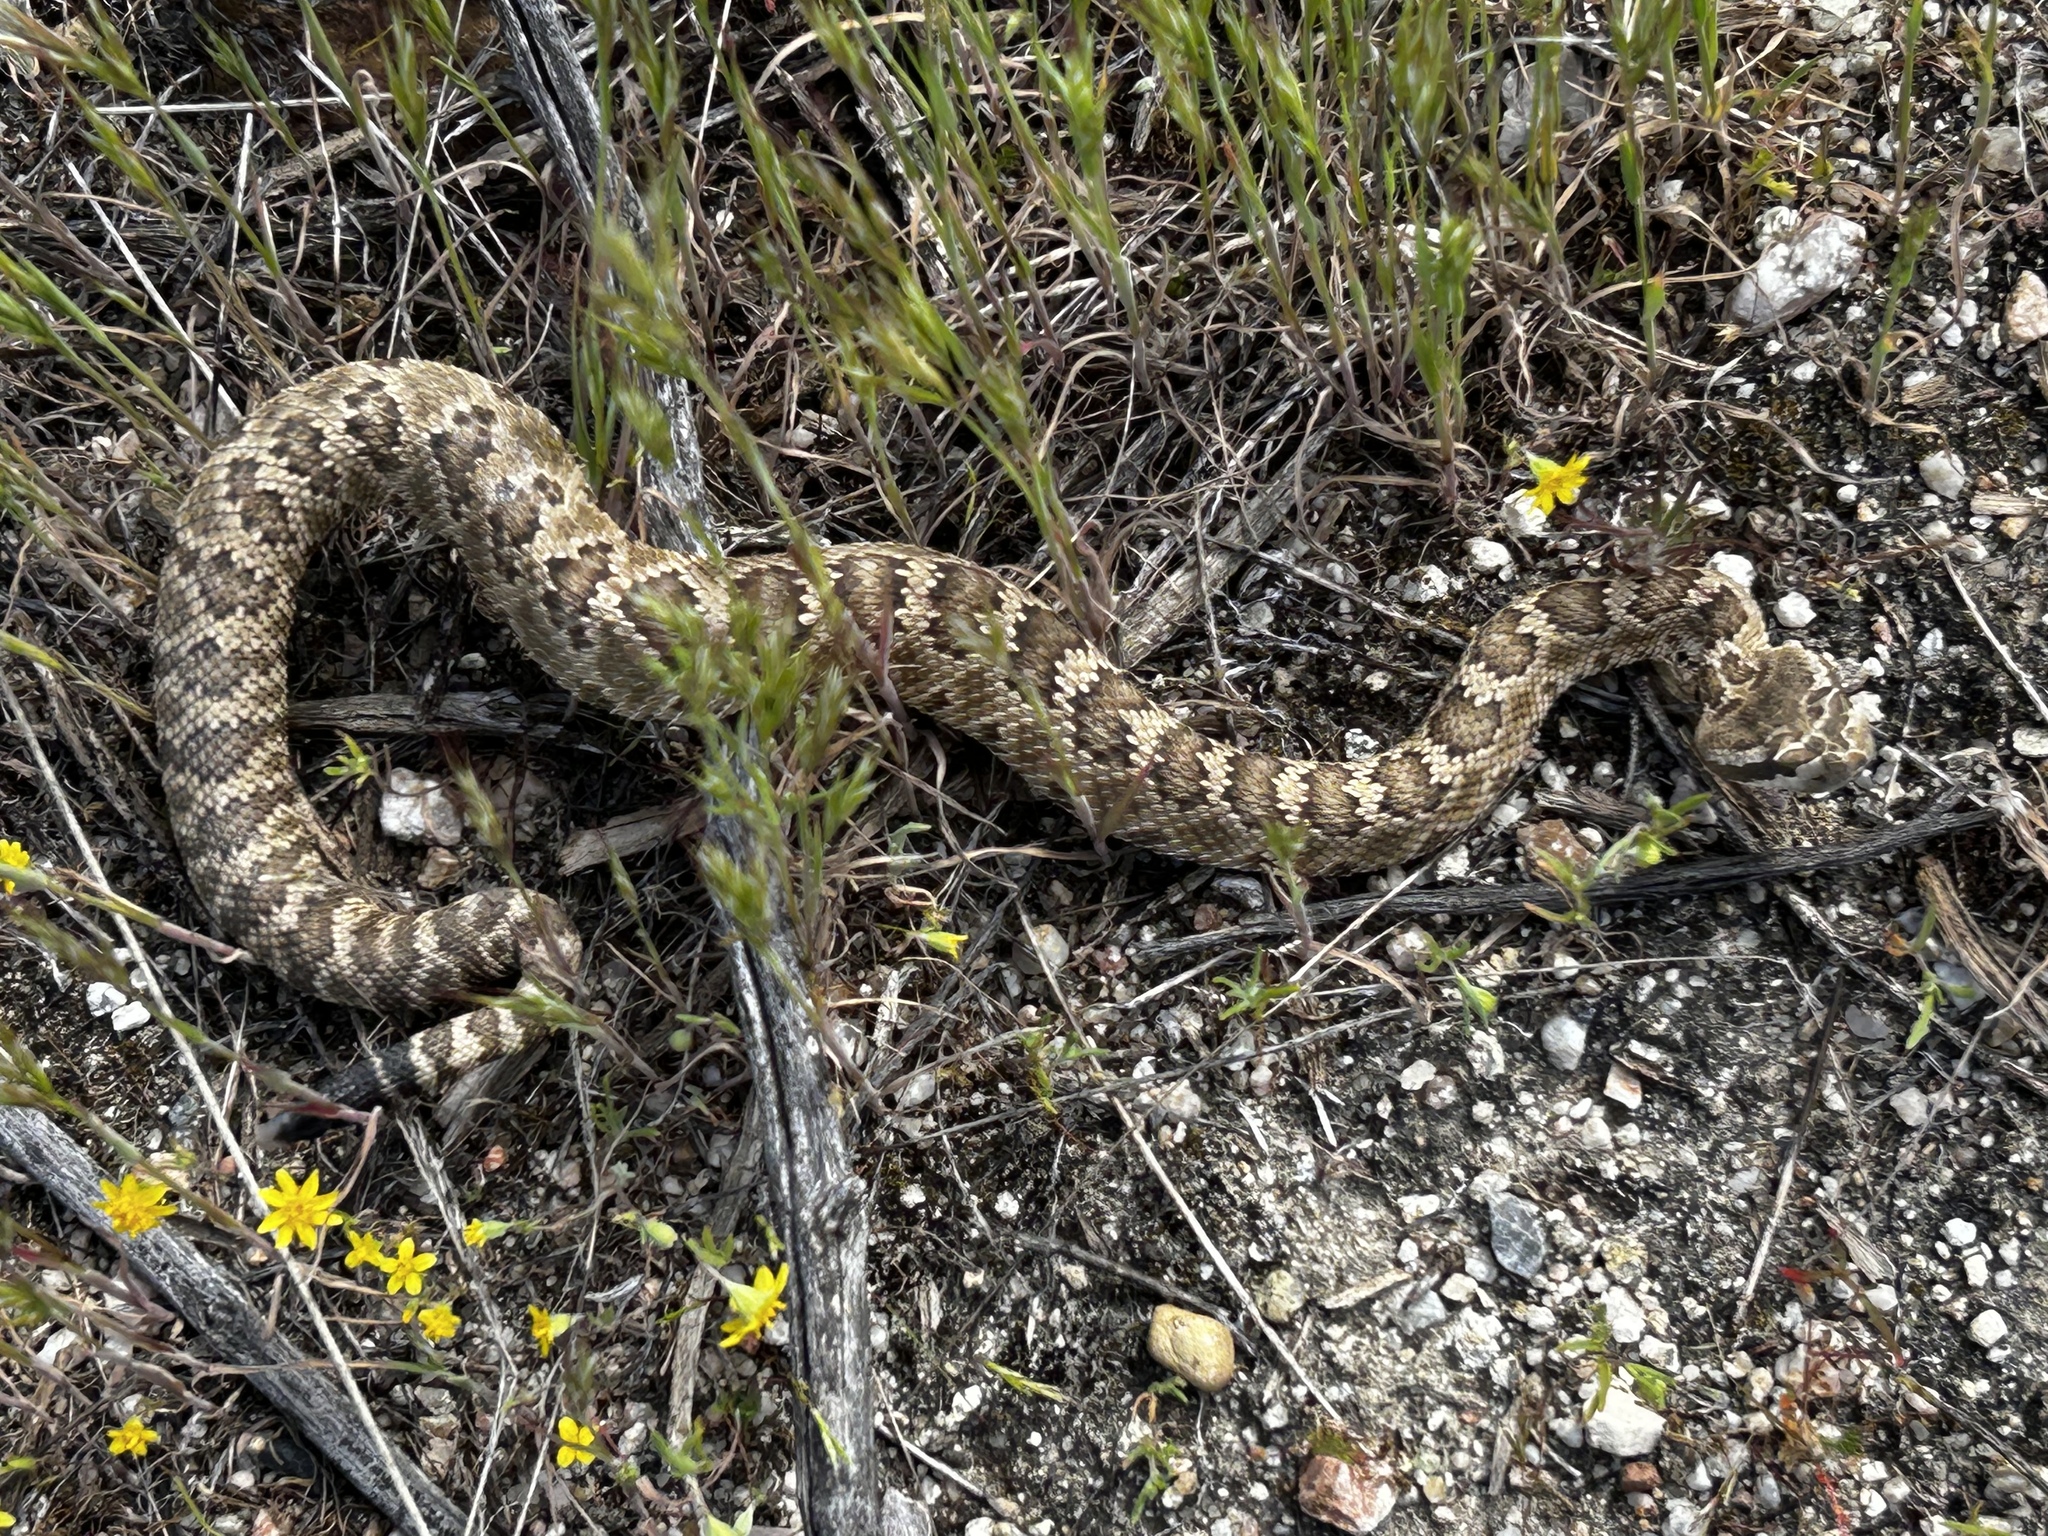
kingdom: Animalia
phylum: Chordata
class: Squamata
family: Viperidae
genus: Crotalus
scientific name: Crotalus oreganus
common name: Abyssus
